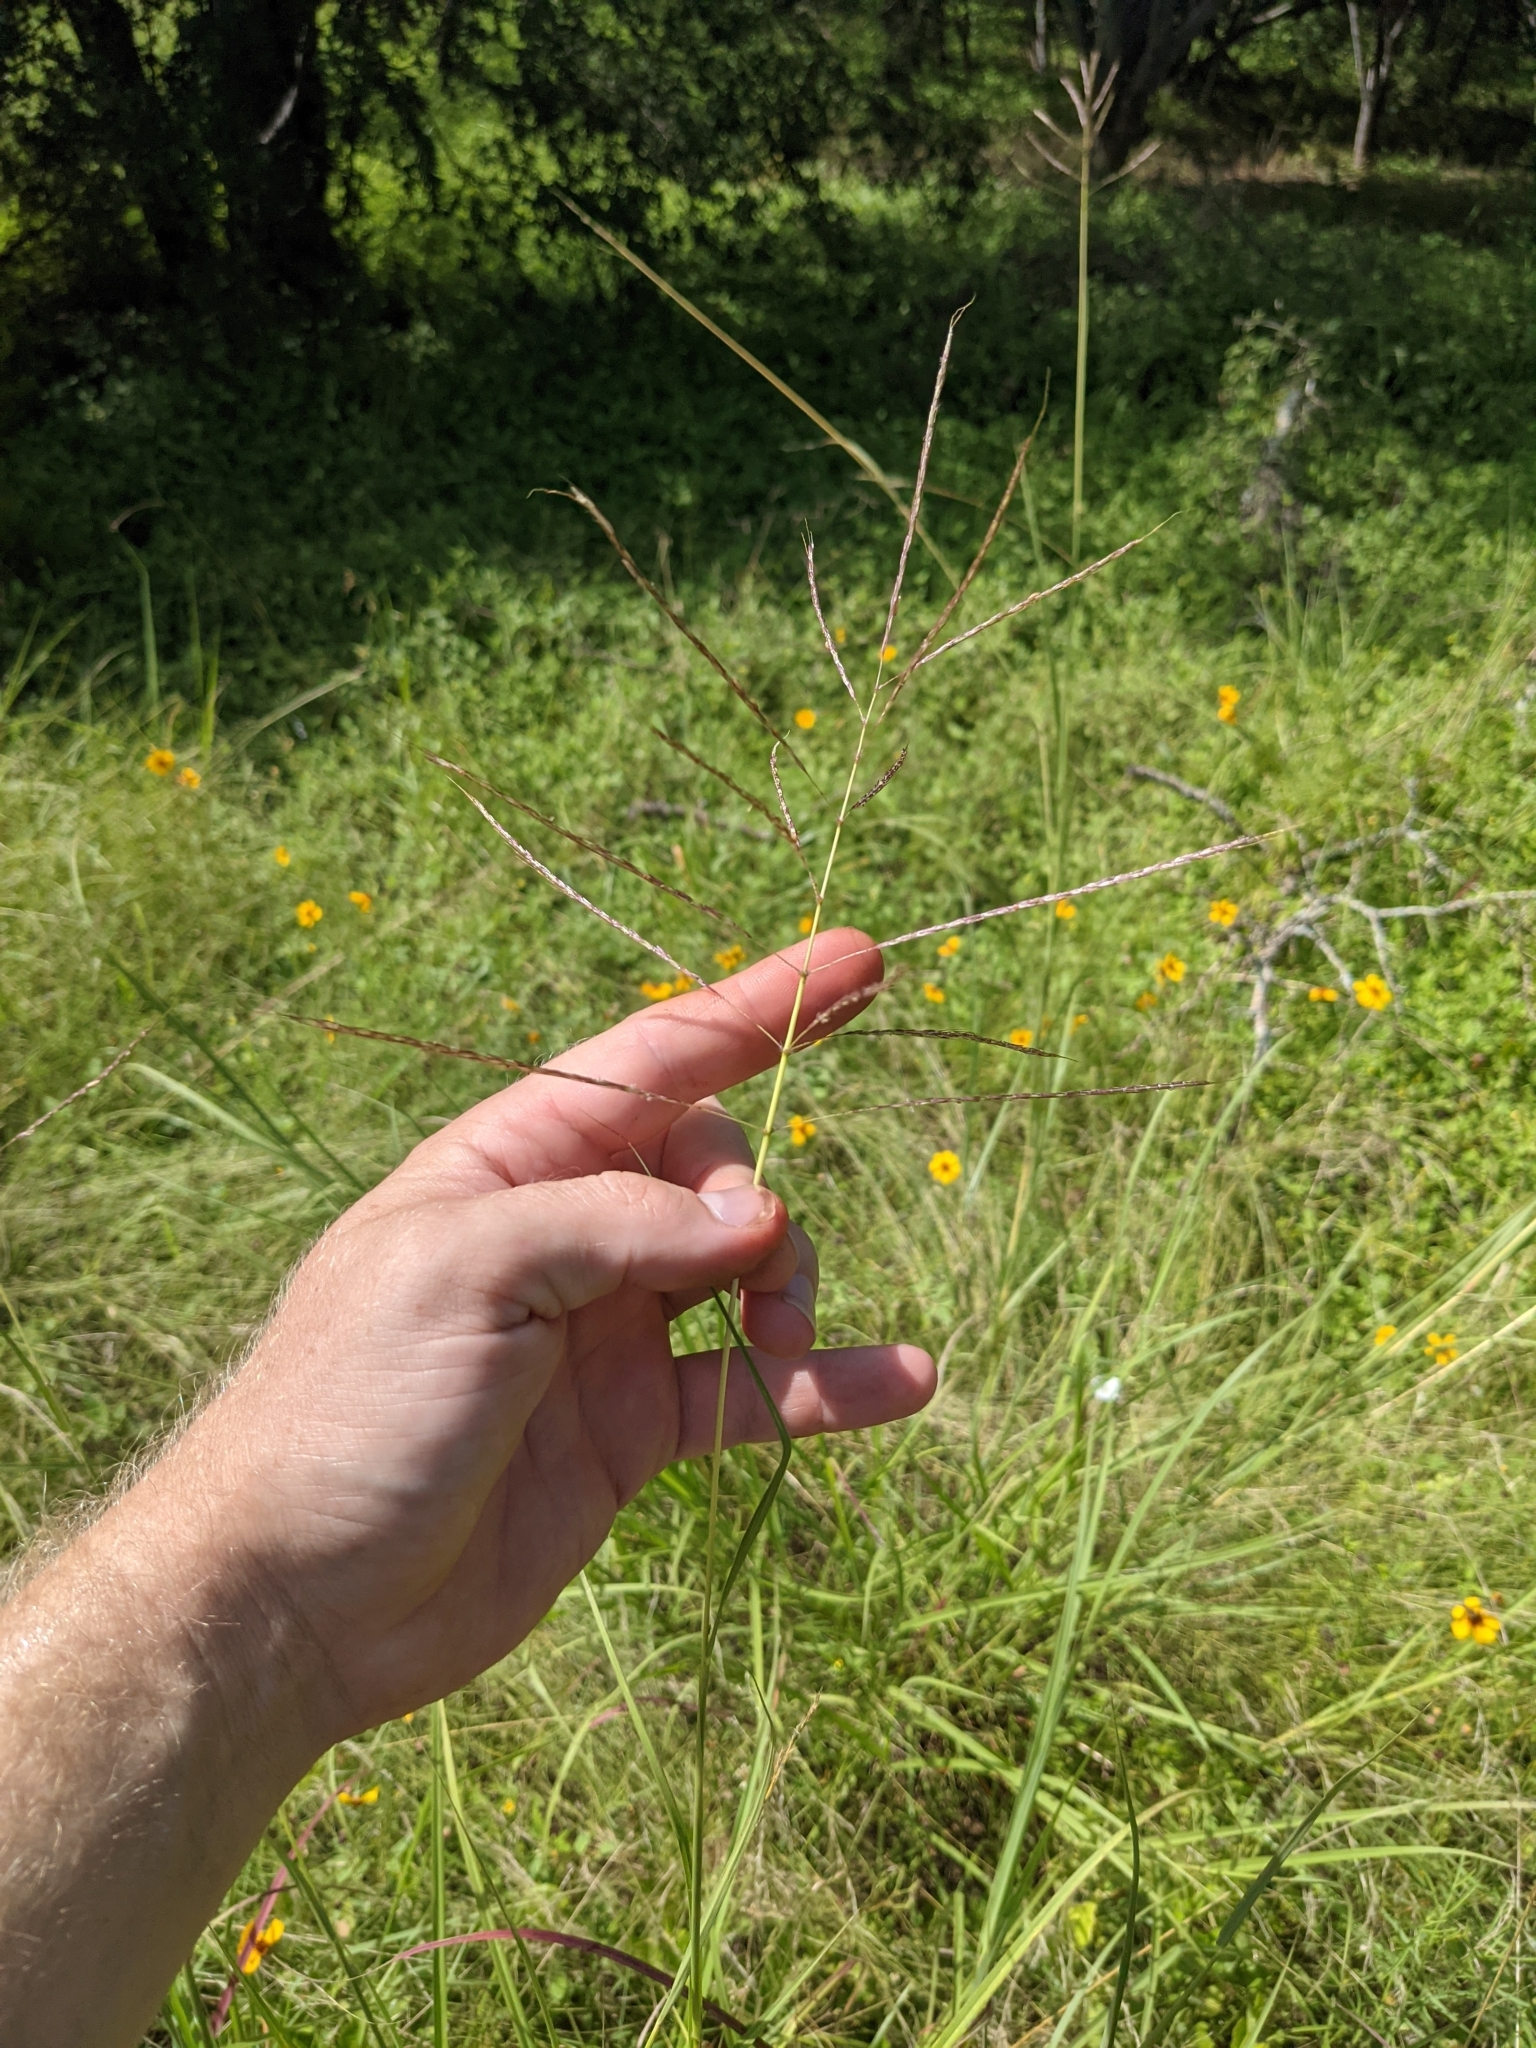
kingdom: Plantae
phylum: Tracheophyta
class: Liliopsida
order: Poales
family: Poaceae
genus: Bothriochloa
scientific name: Bothriochloa bladhii
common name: Caucasian bluestem
